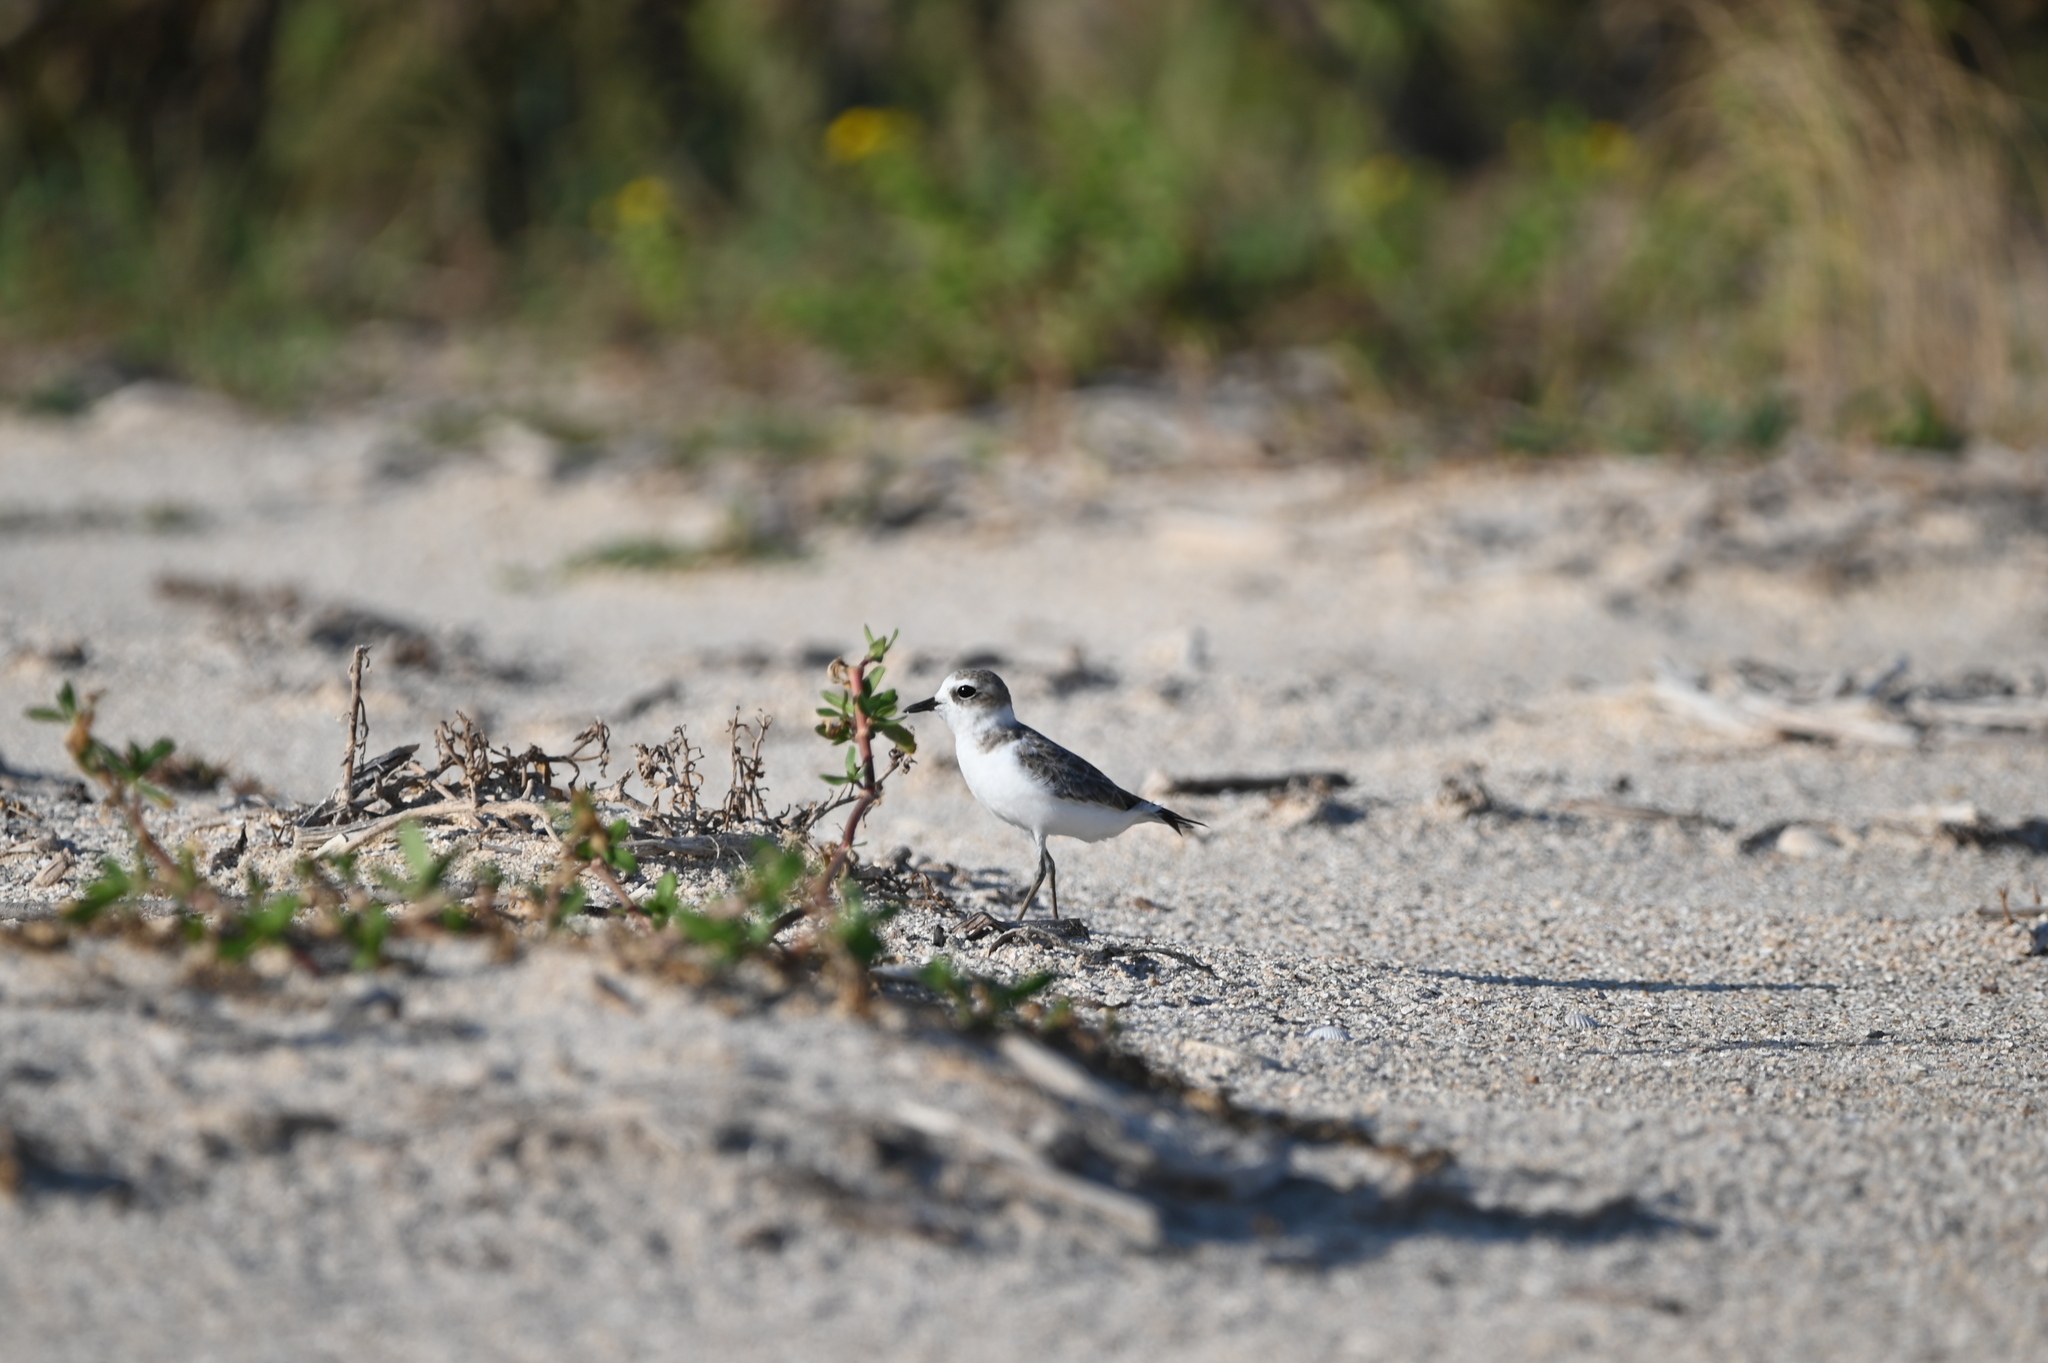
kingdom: Animalia
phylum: Chordata
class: Aves
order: Charadriiformes
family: Charadriidae
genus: Anarhynchus
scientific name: Anarhynchus
